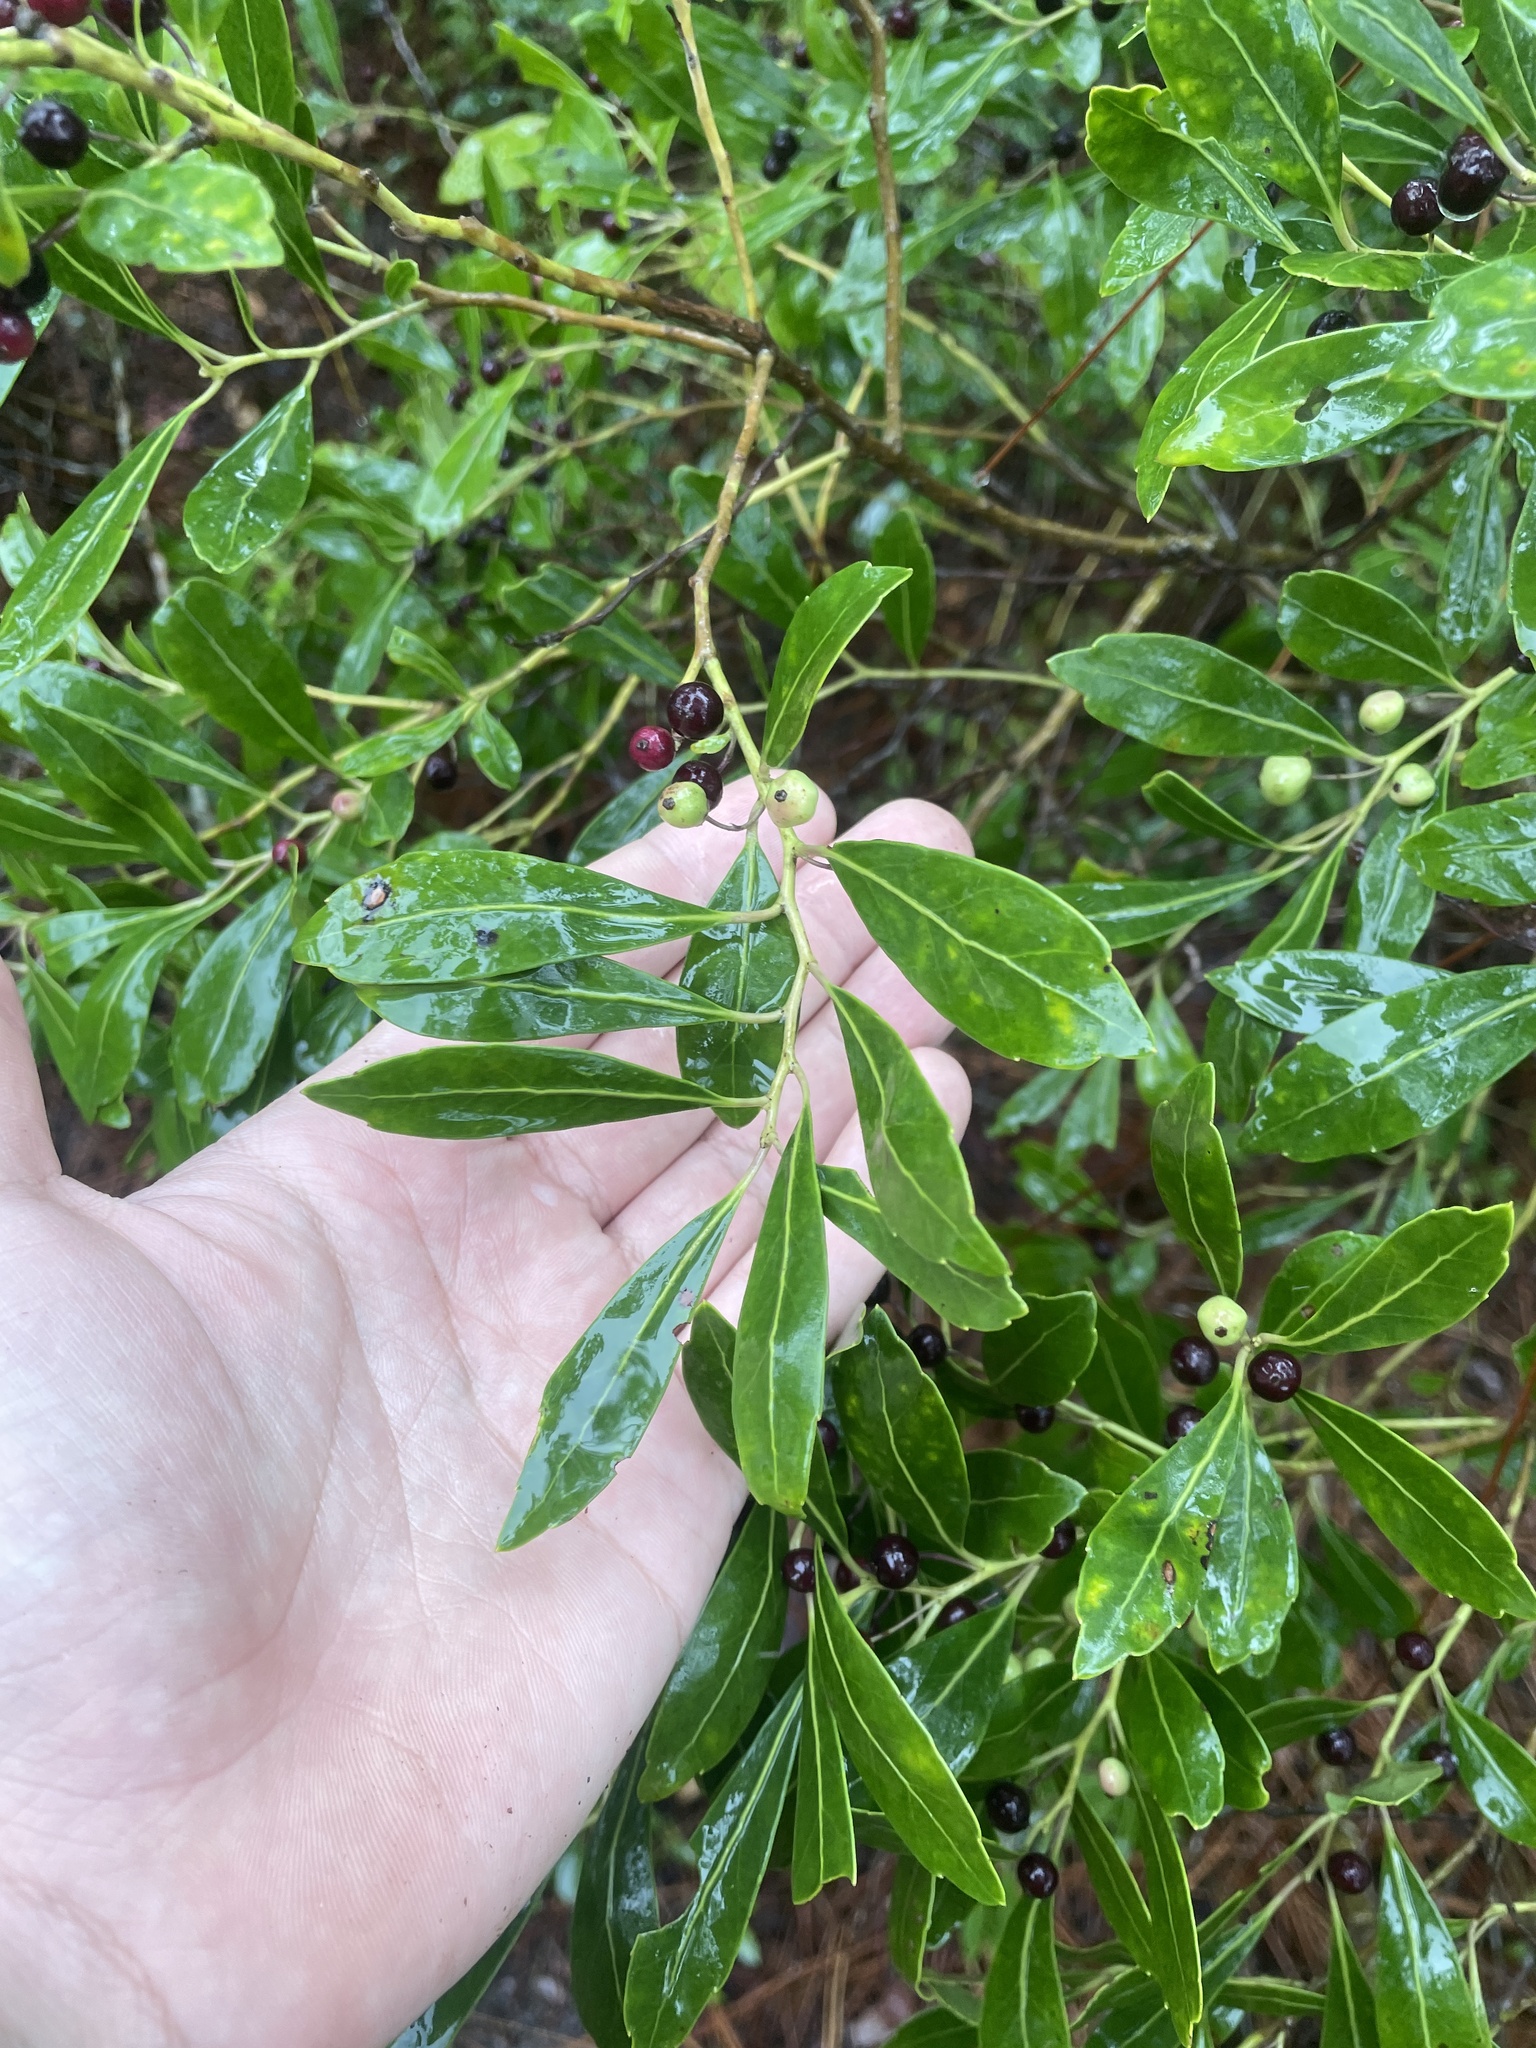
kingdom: Plantae
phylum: Tracheophyta
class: Magnoliopsida
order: Aquifoliales
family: Aquifoliaceae
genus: Ilex
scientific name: Ilex glabra
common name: Bitter gallberry
